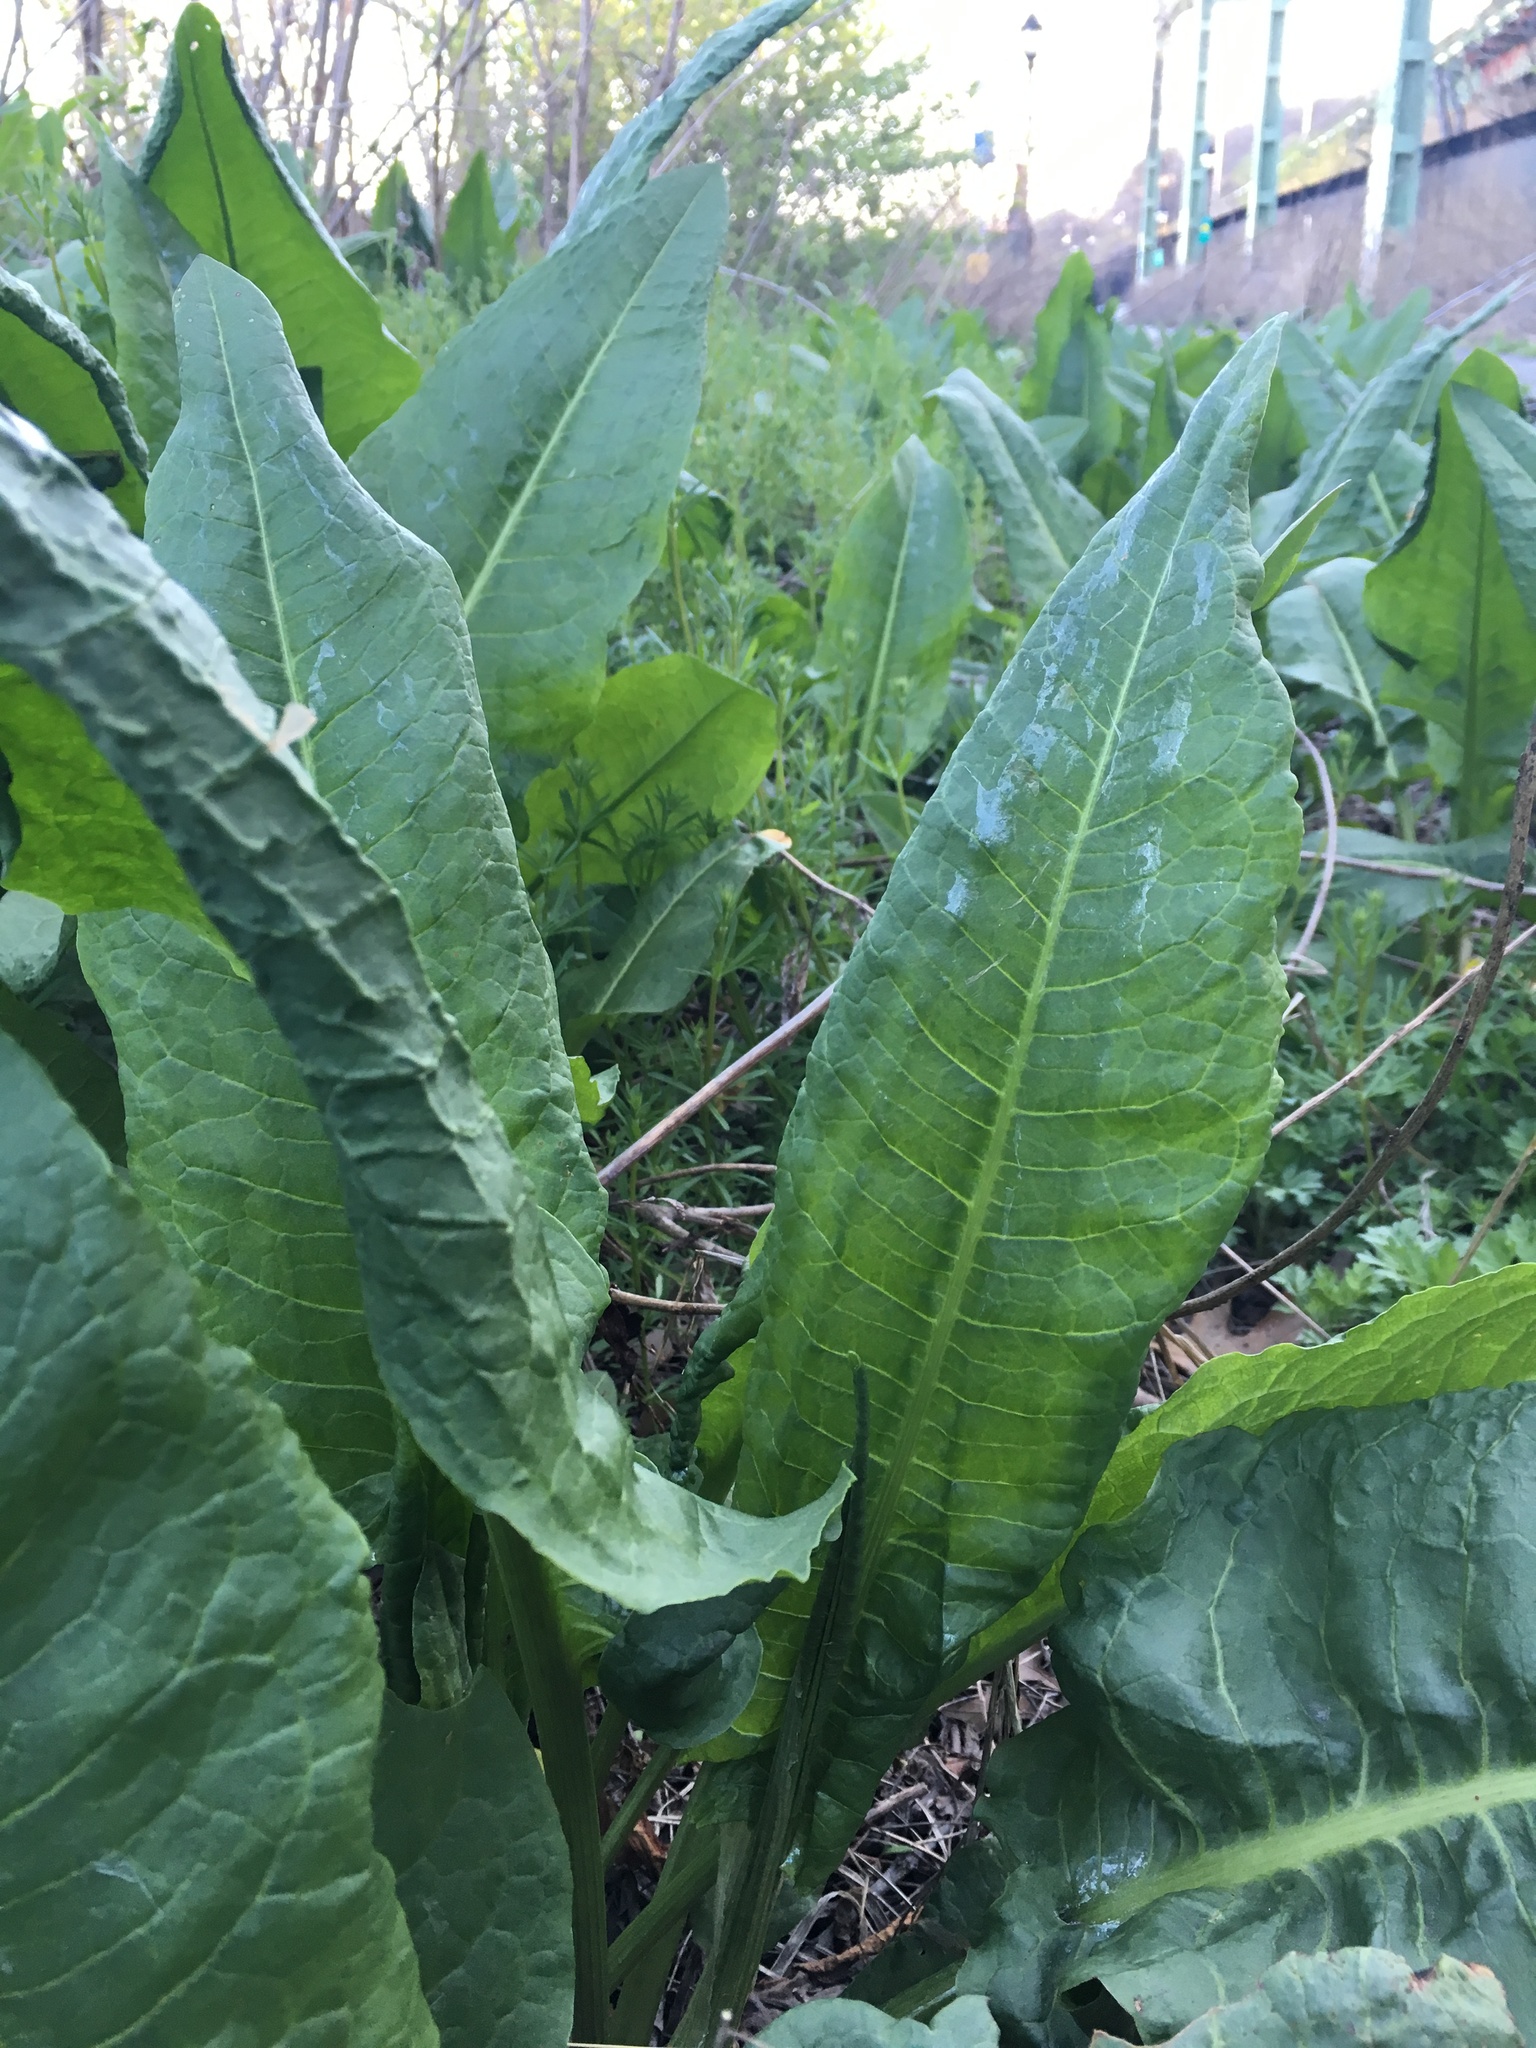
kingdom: Plantae
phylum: Tracheophyta
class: Magnoliopsida
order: Caryophyllales
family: Polygonaceae
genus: Rumex
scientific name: Rumex confusus
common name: Dock
